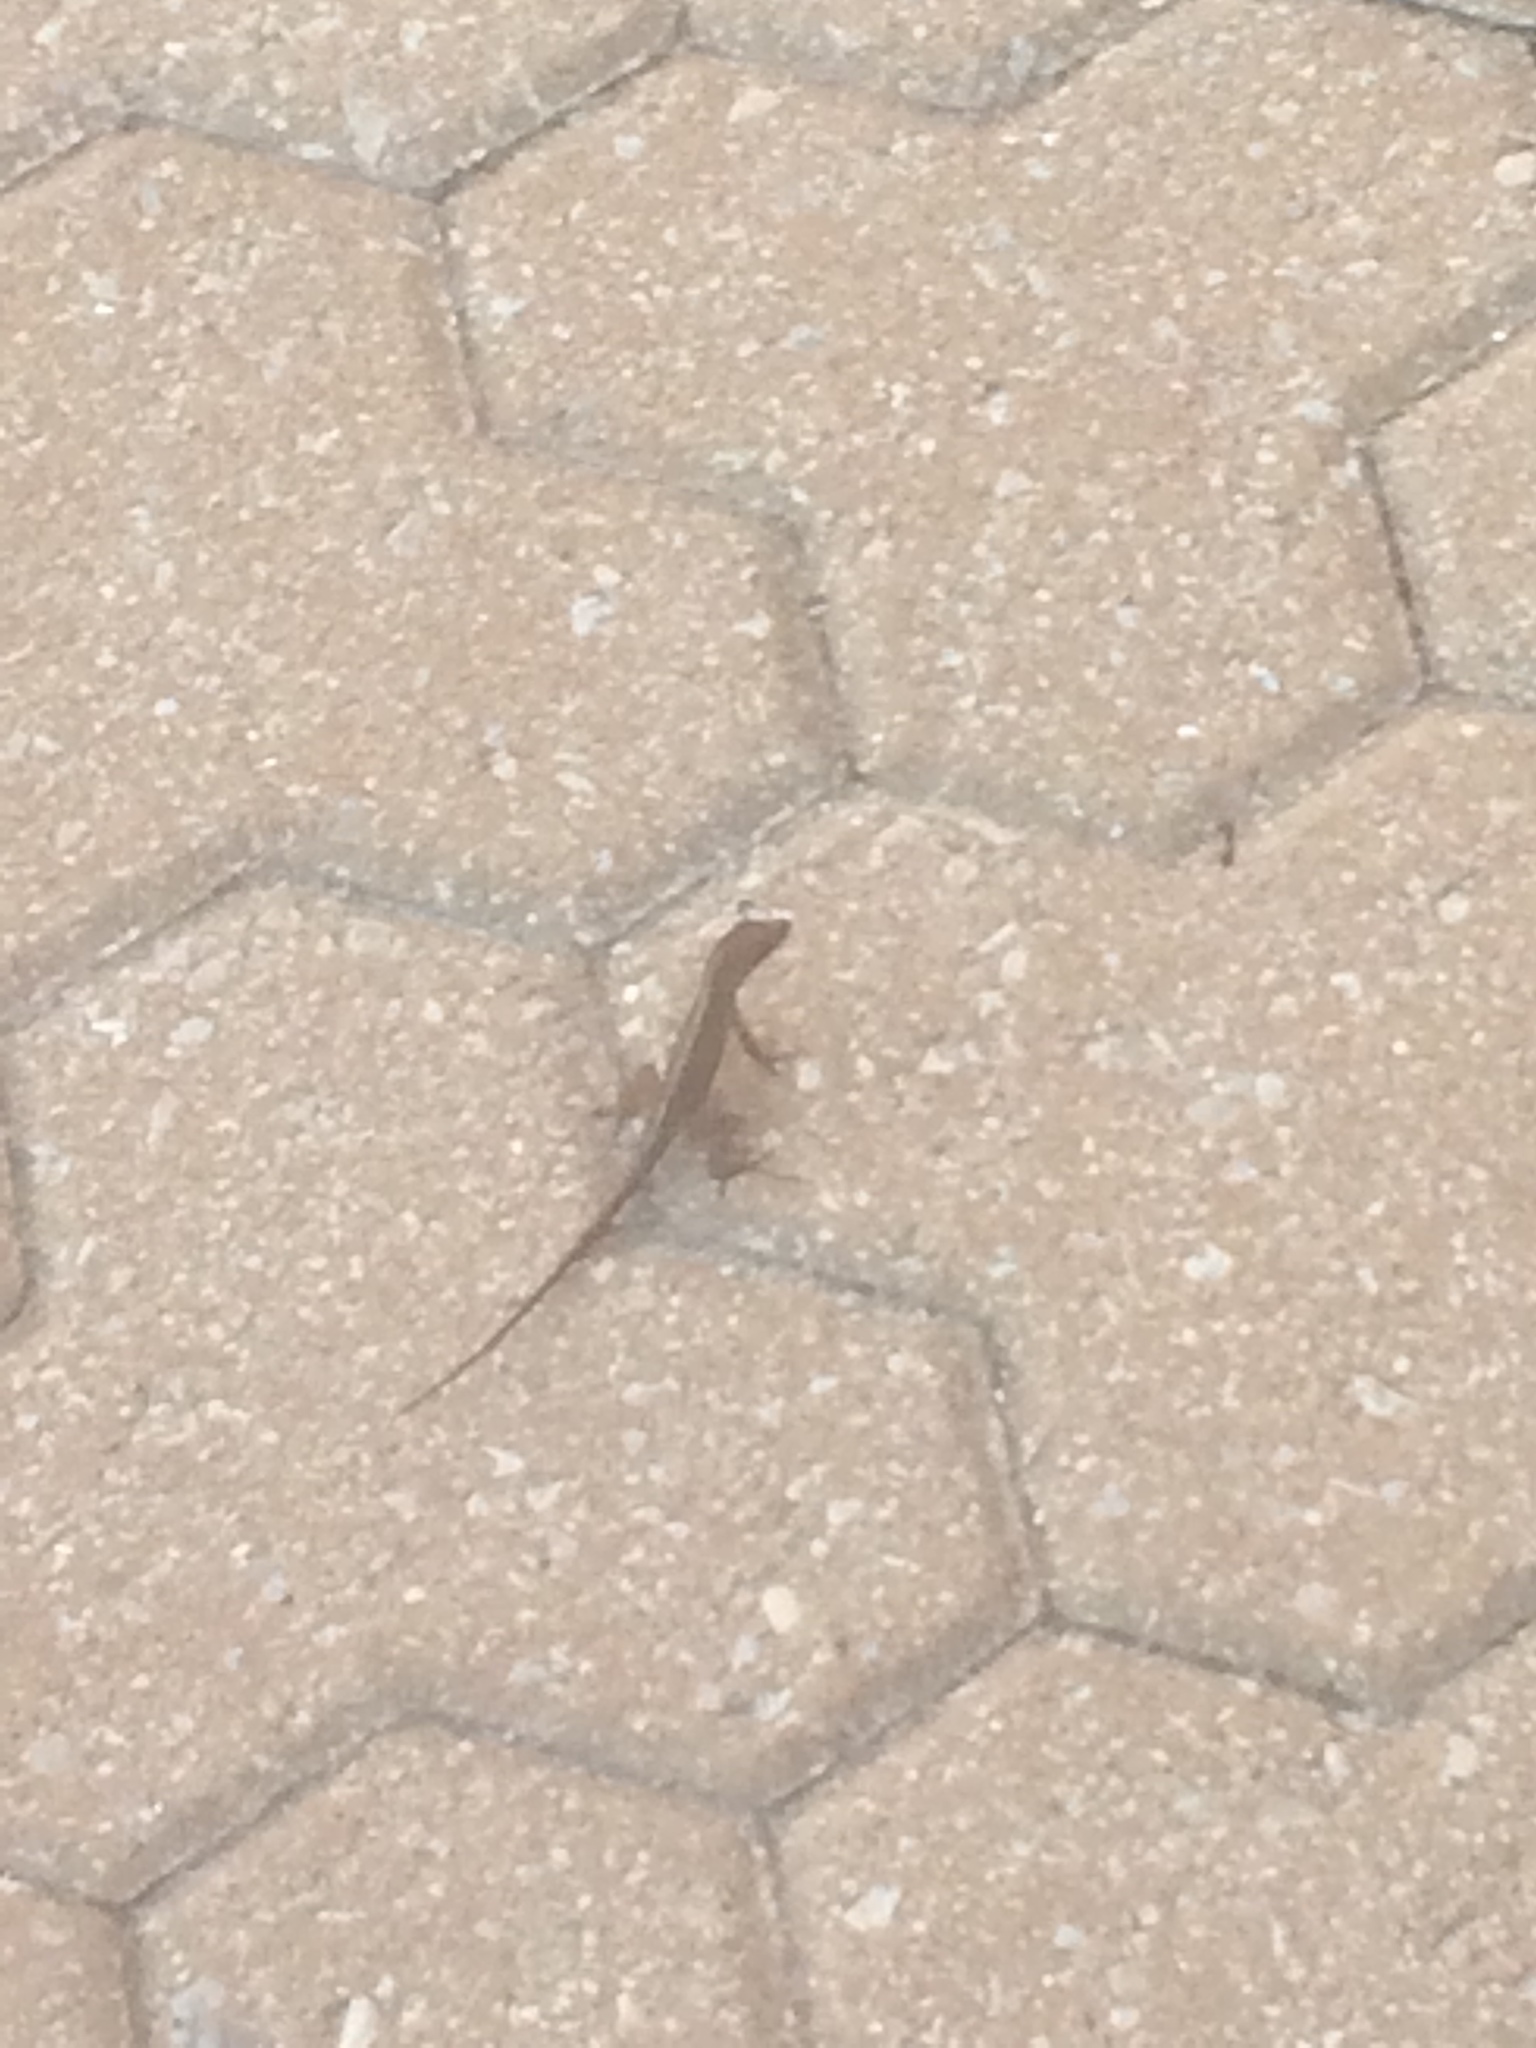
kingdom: Animalia
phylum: Chordata
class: Squamata
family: Dactyloidae
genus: Anolis
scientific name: Anolis sagrei
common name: Brown anole
